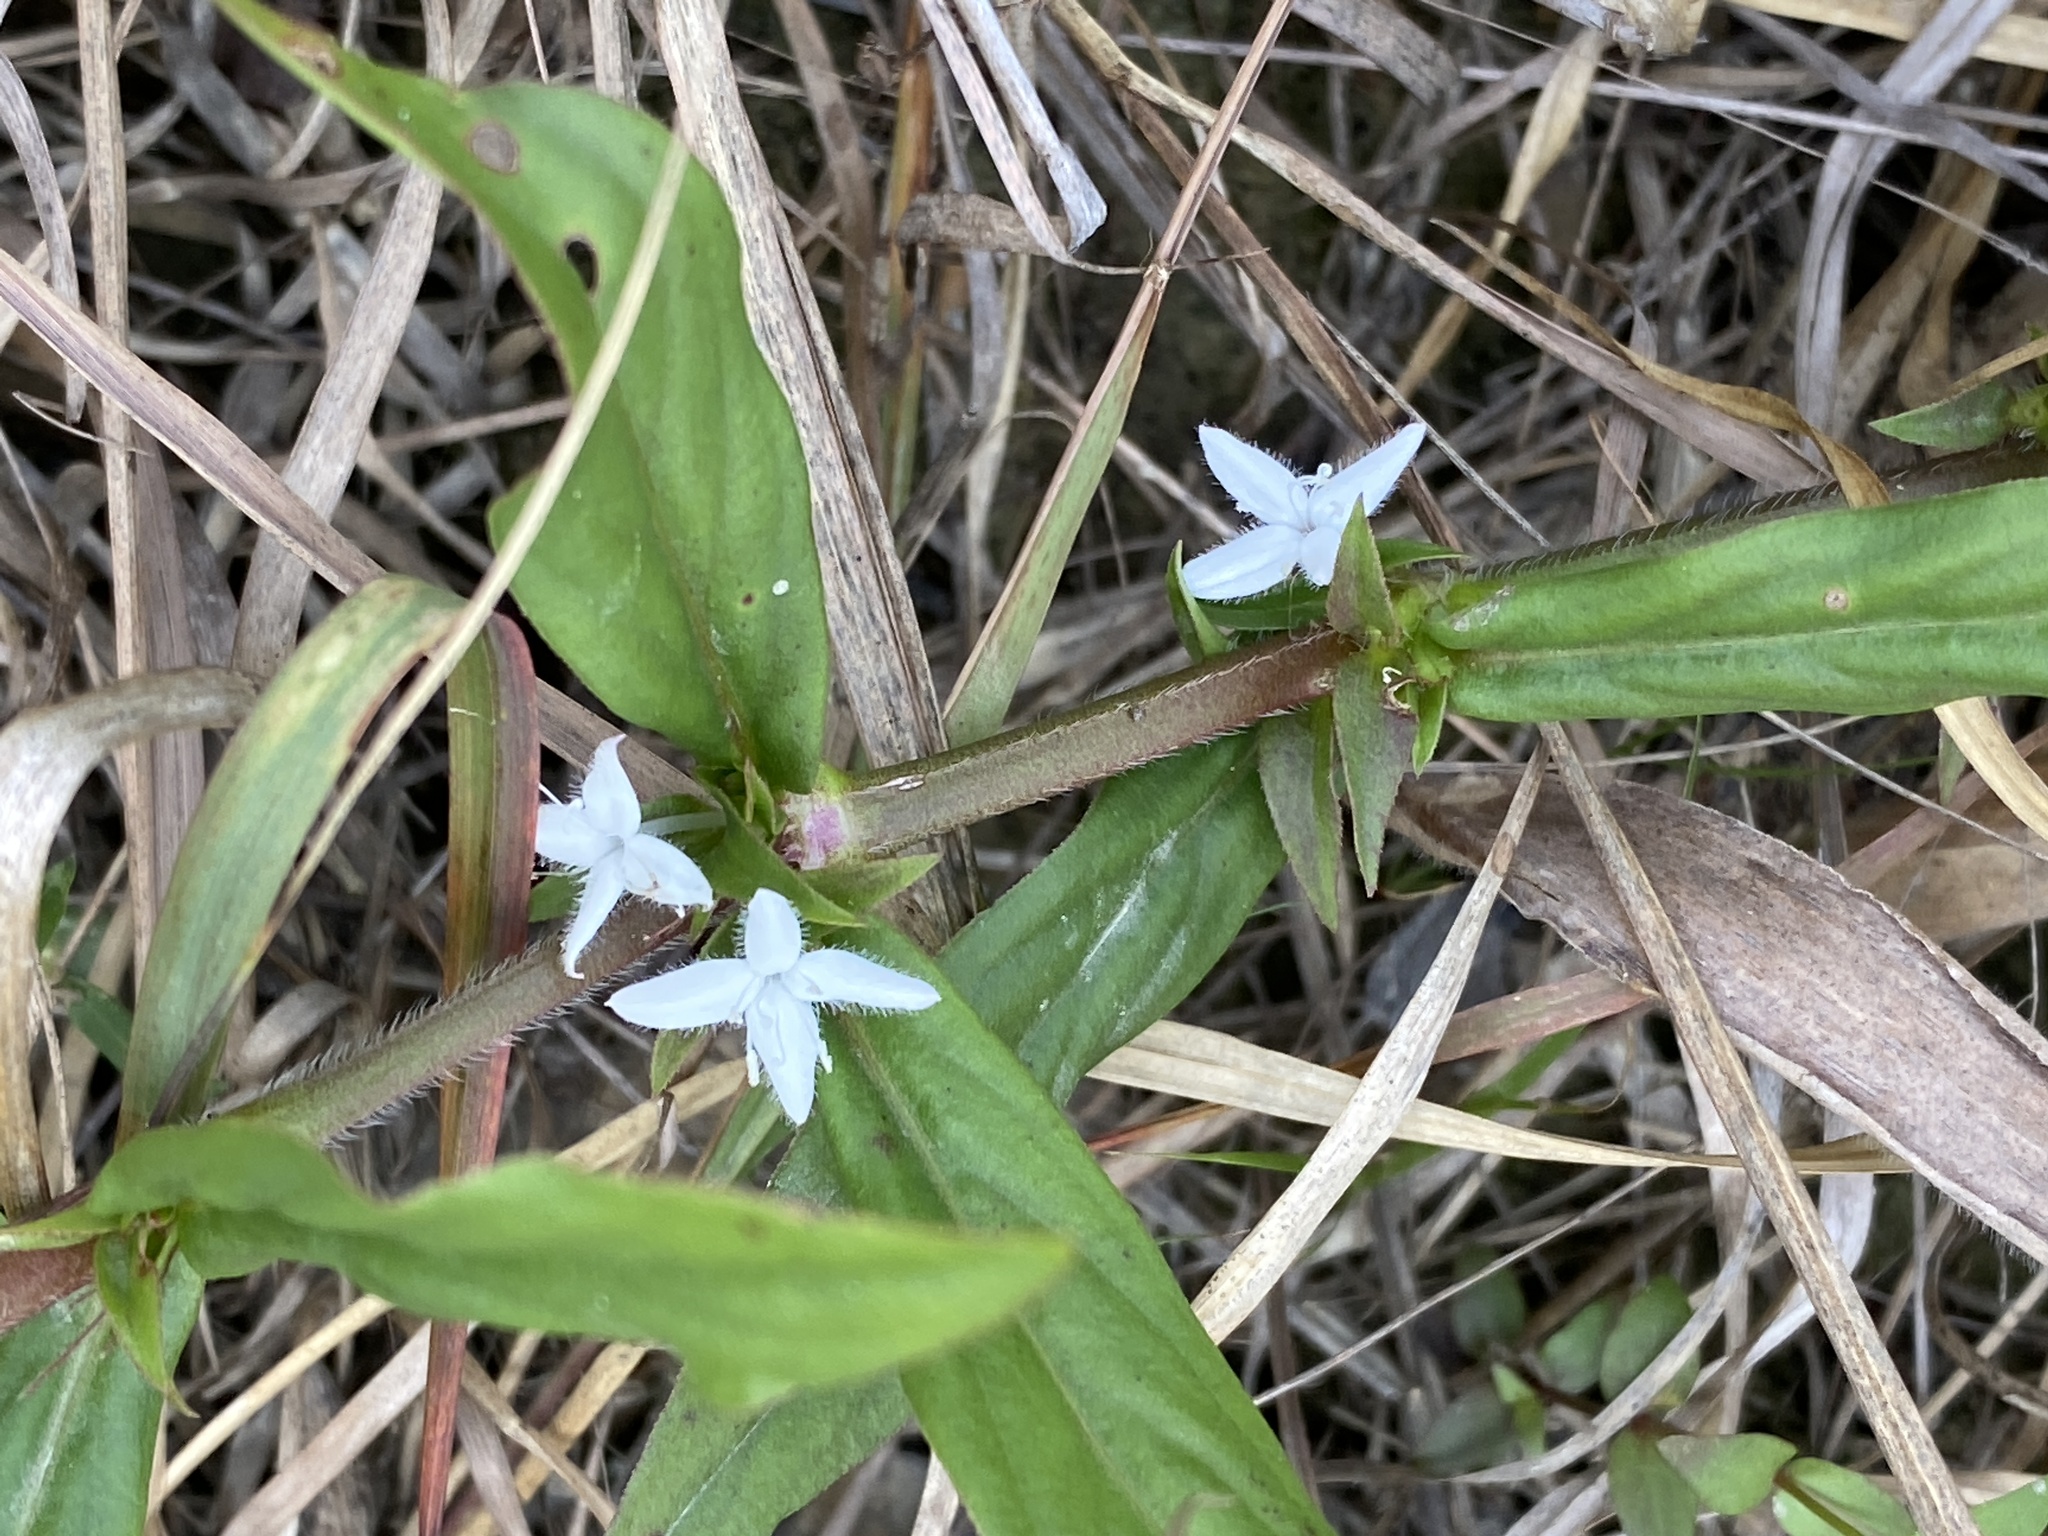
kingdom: Plantae
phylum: Tracheophyta
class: Magnoliopsida
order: Gentianales
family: Rubiaceae
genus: Diodia
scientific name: Diodia virginiana
